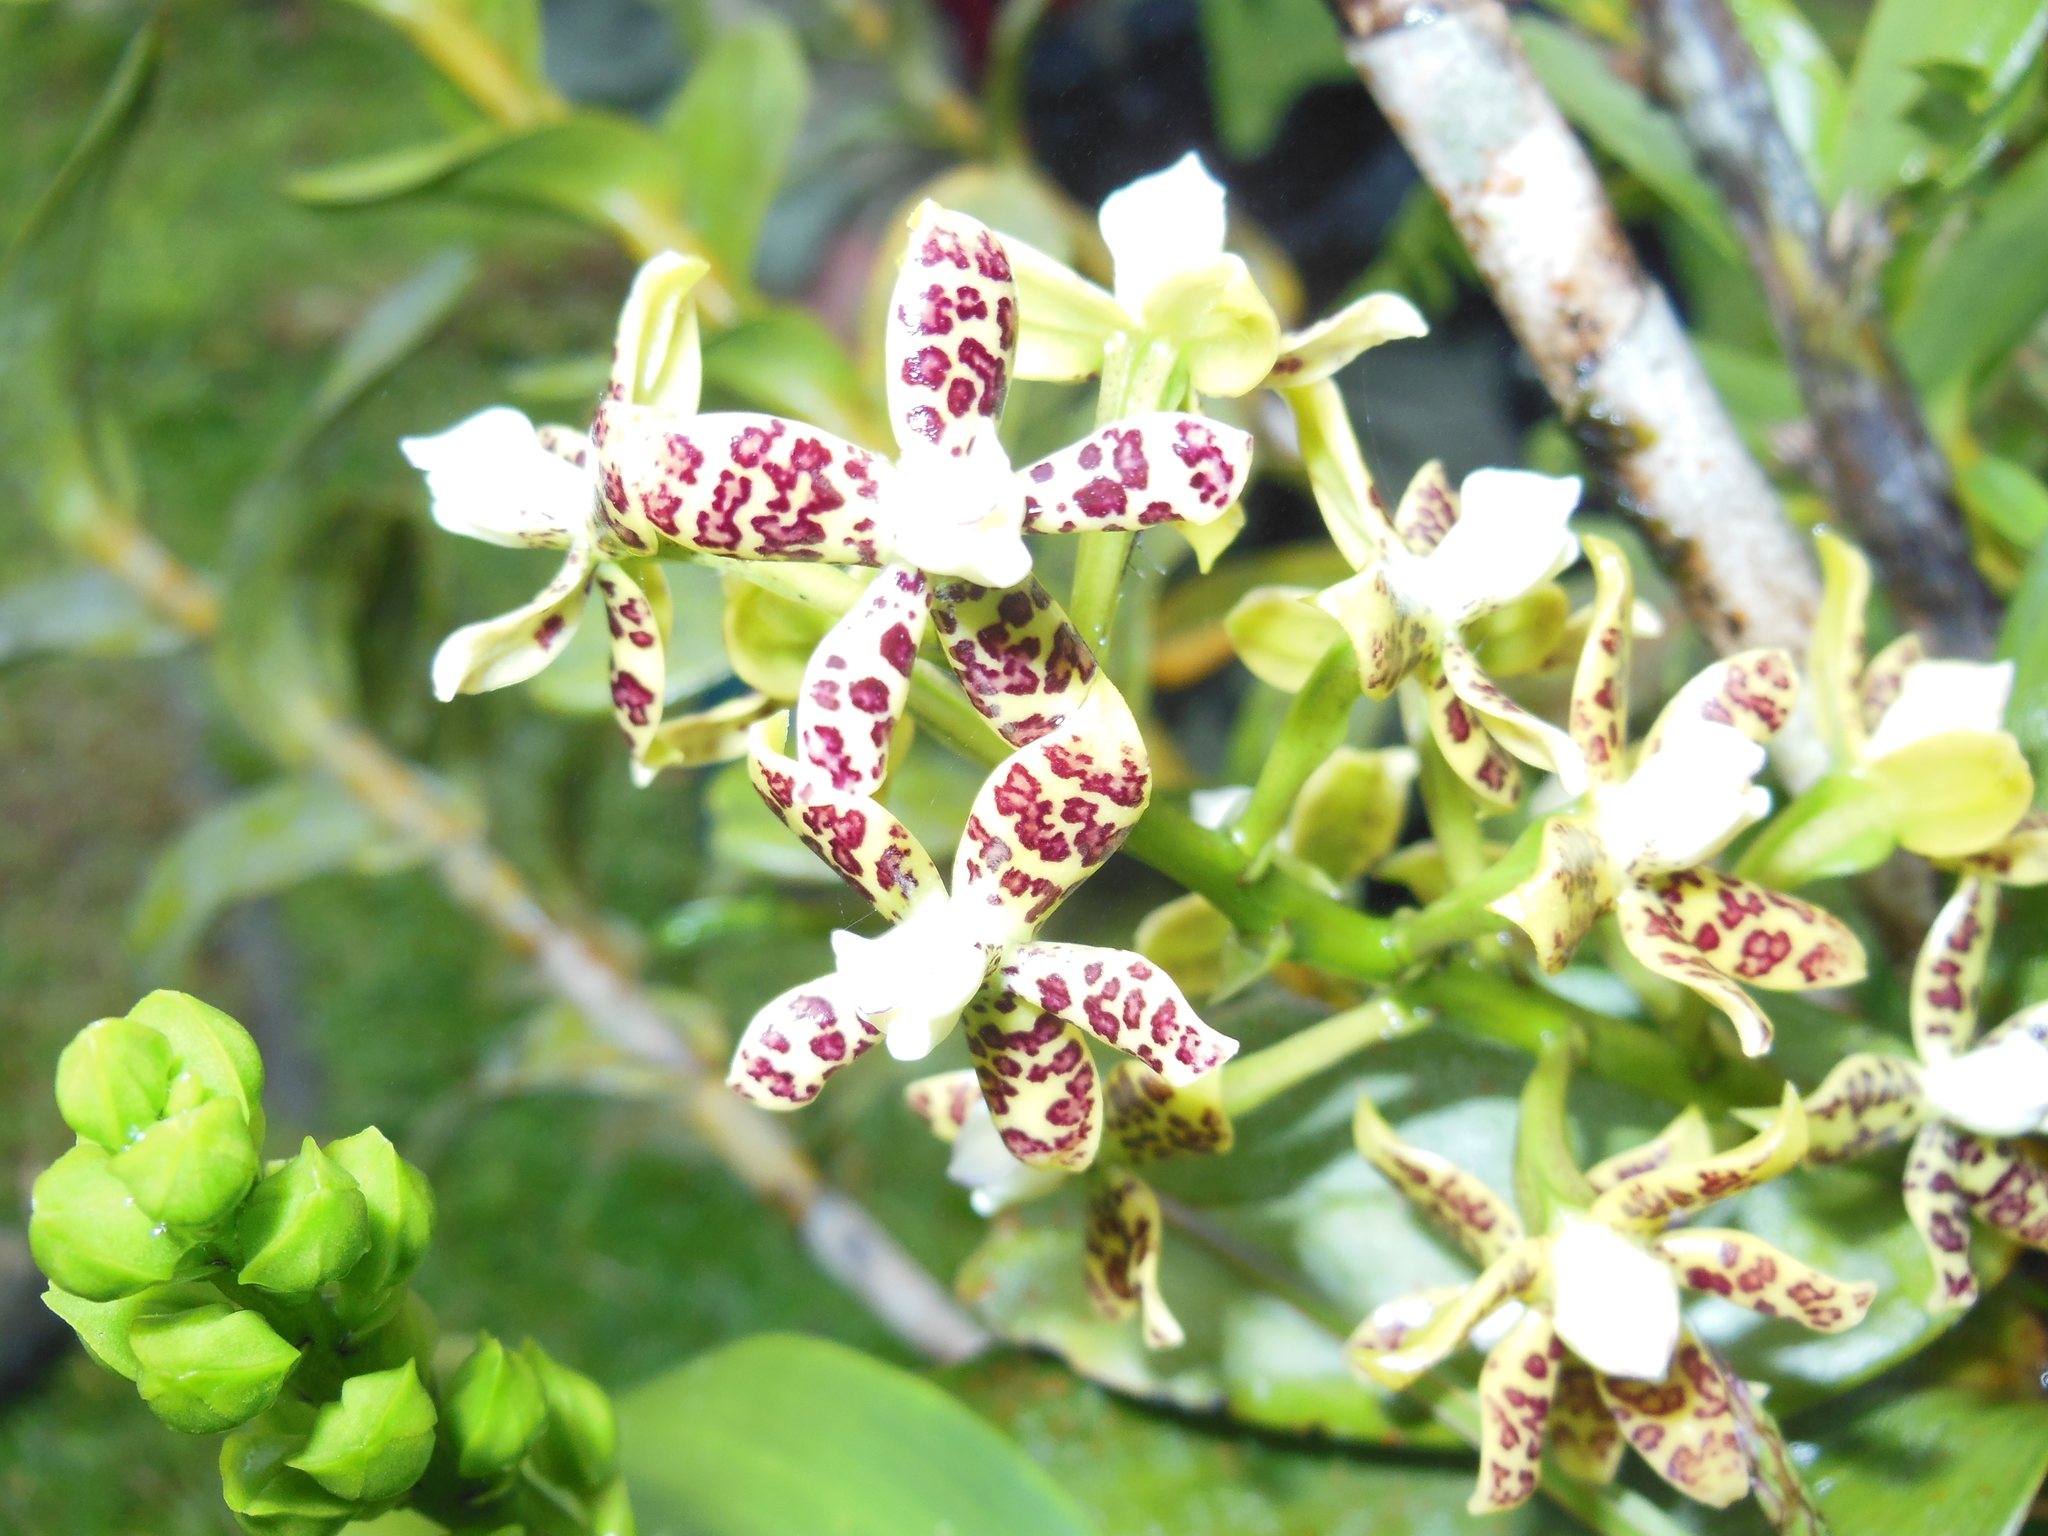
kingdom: Plantae
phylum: Tracheophyta
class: Liliopsida
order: Asparagales
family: Orchidaceae
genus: Prosthechea
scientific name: Prosthechea crassilabia
